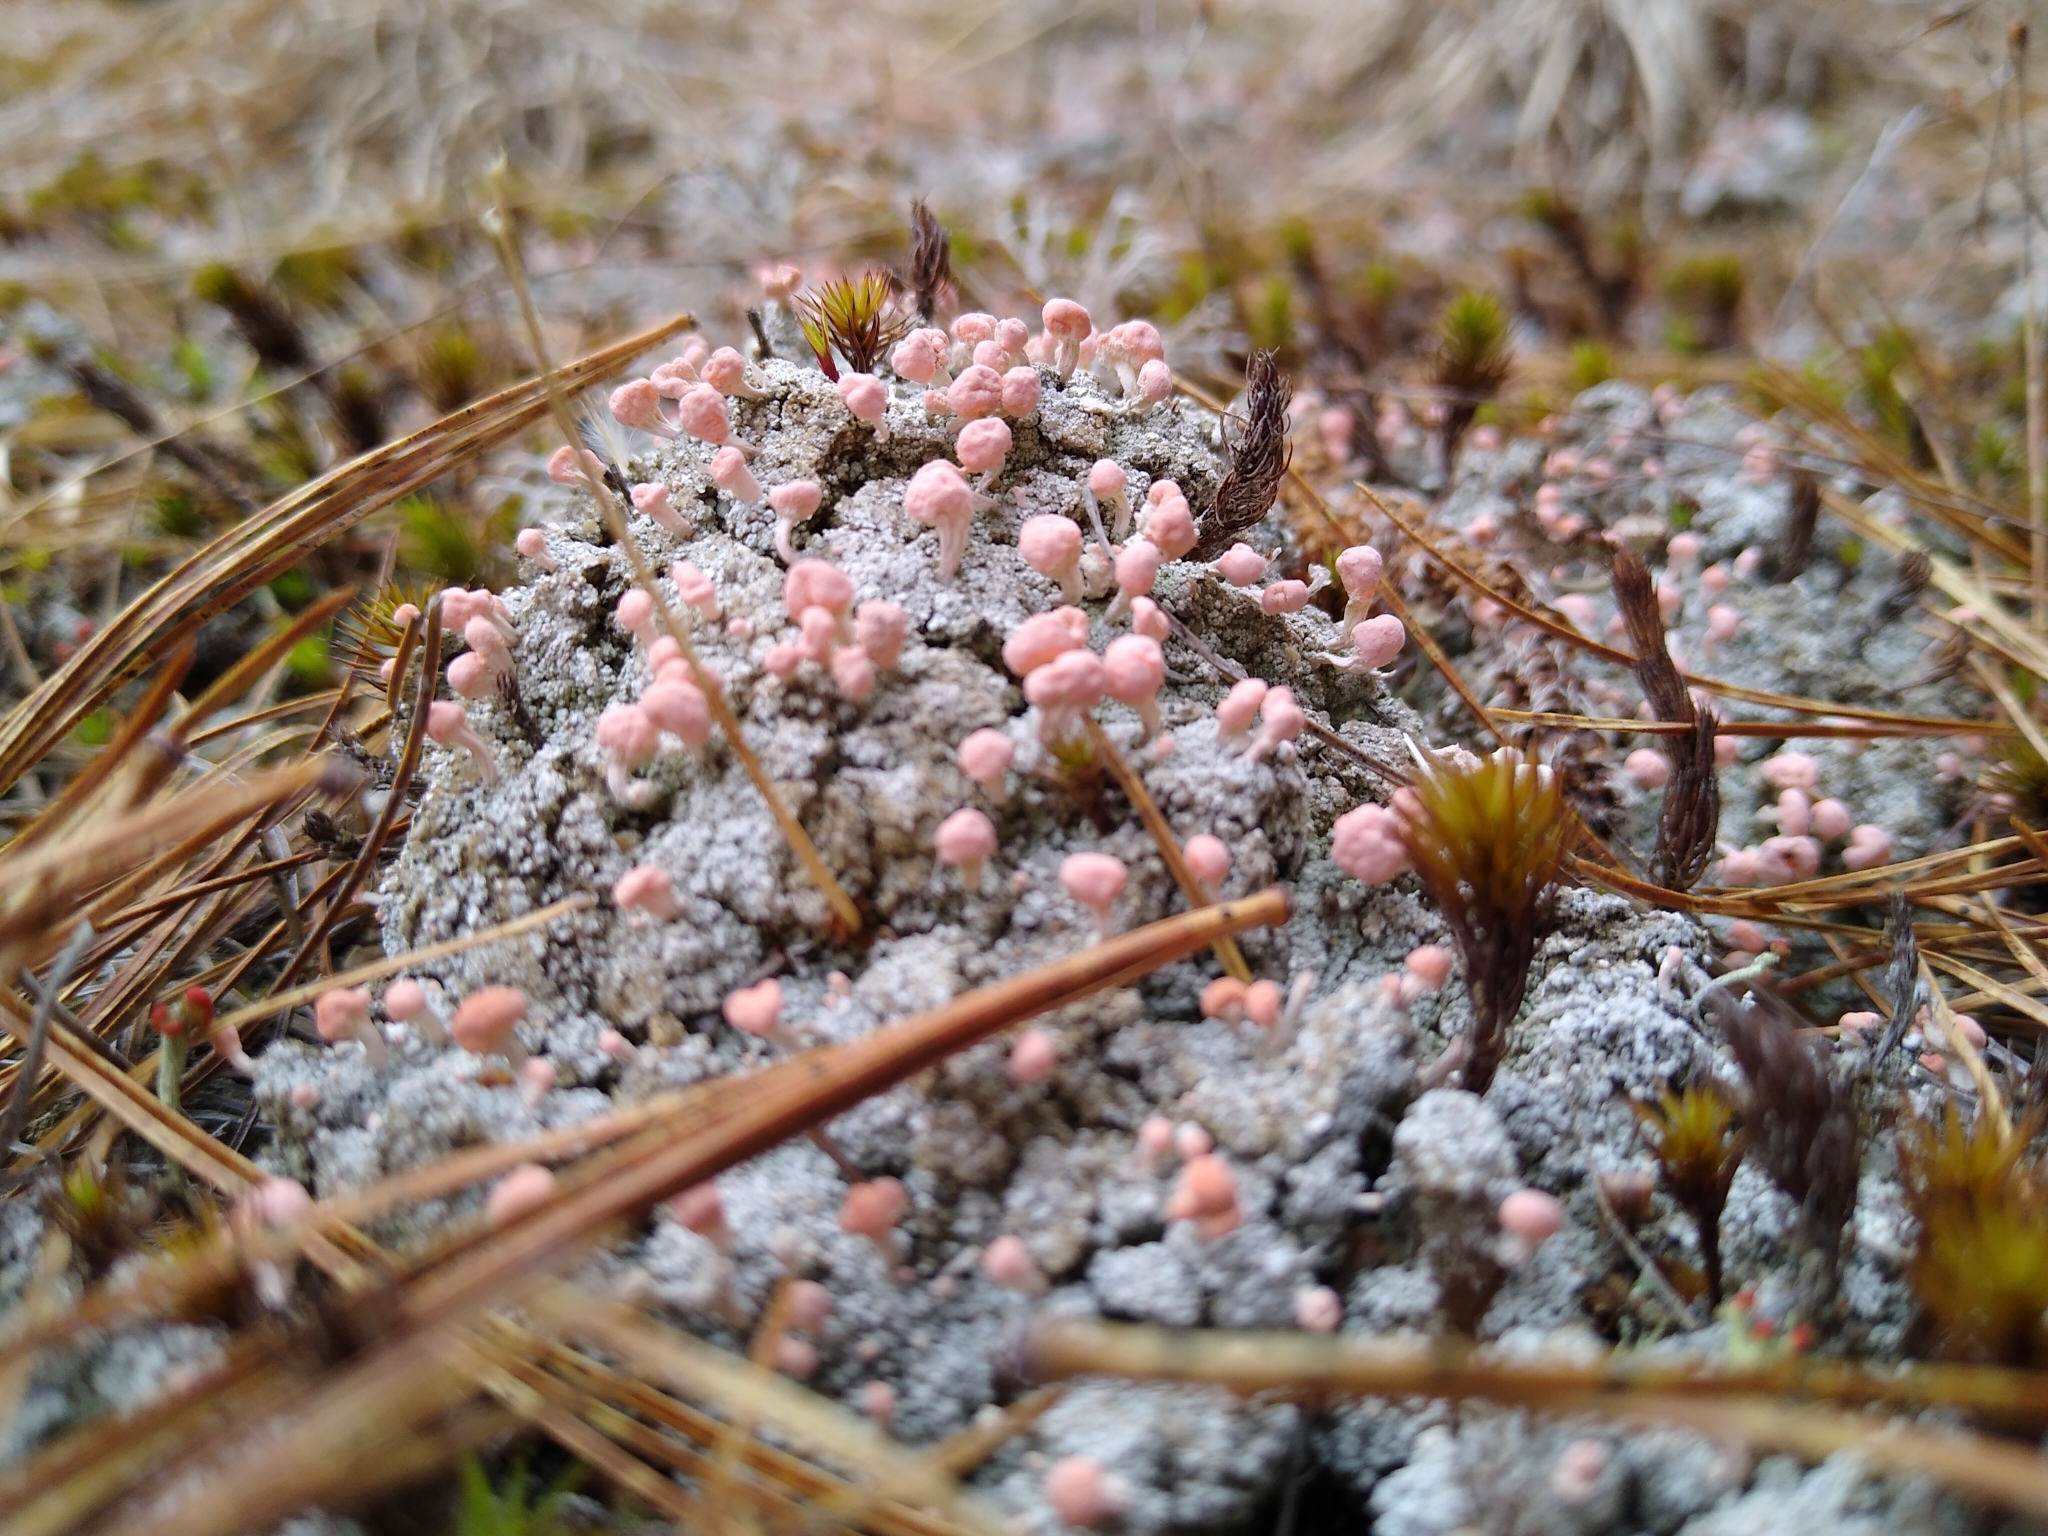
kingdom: Fungi
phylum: Ascomycota
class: Lecanoromycetes
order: Pertusariales
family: Icmadophilaceae
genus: Dibaeis
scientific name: Dibaeis baeomyces
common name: Pink earth lichen
